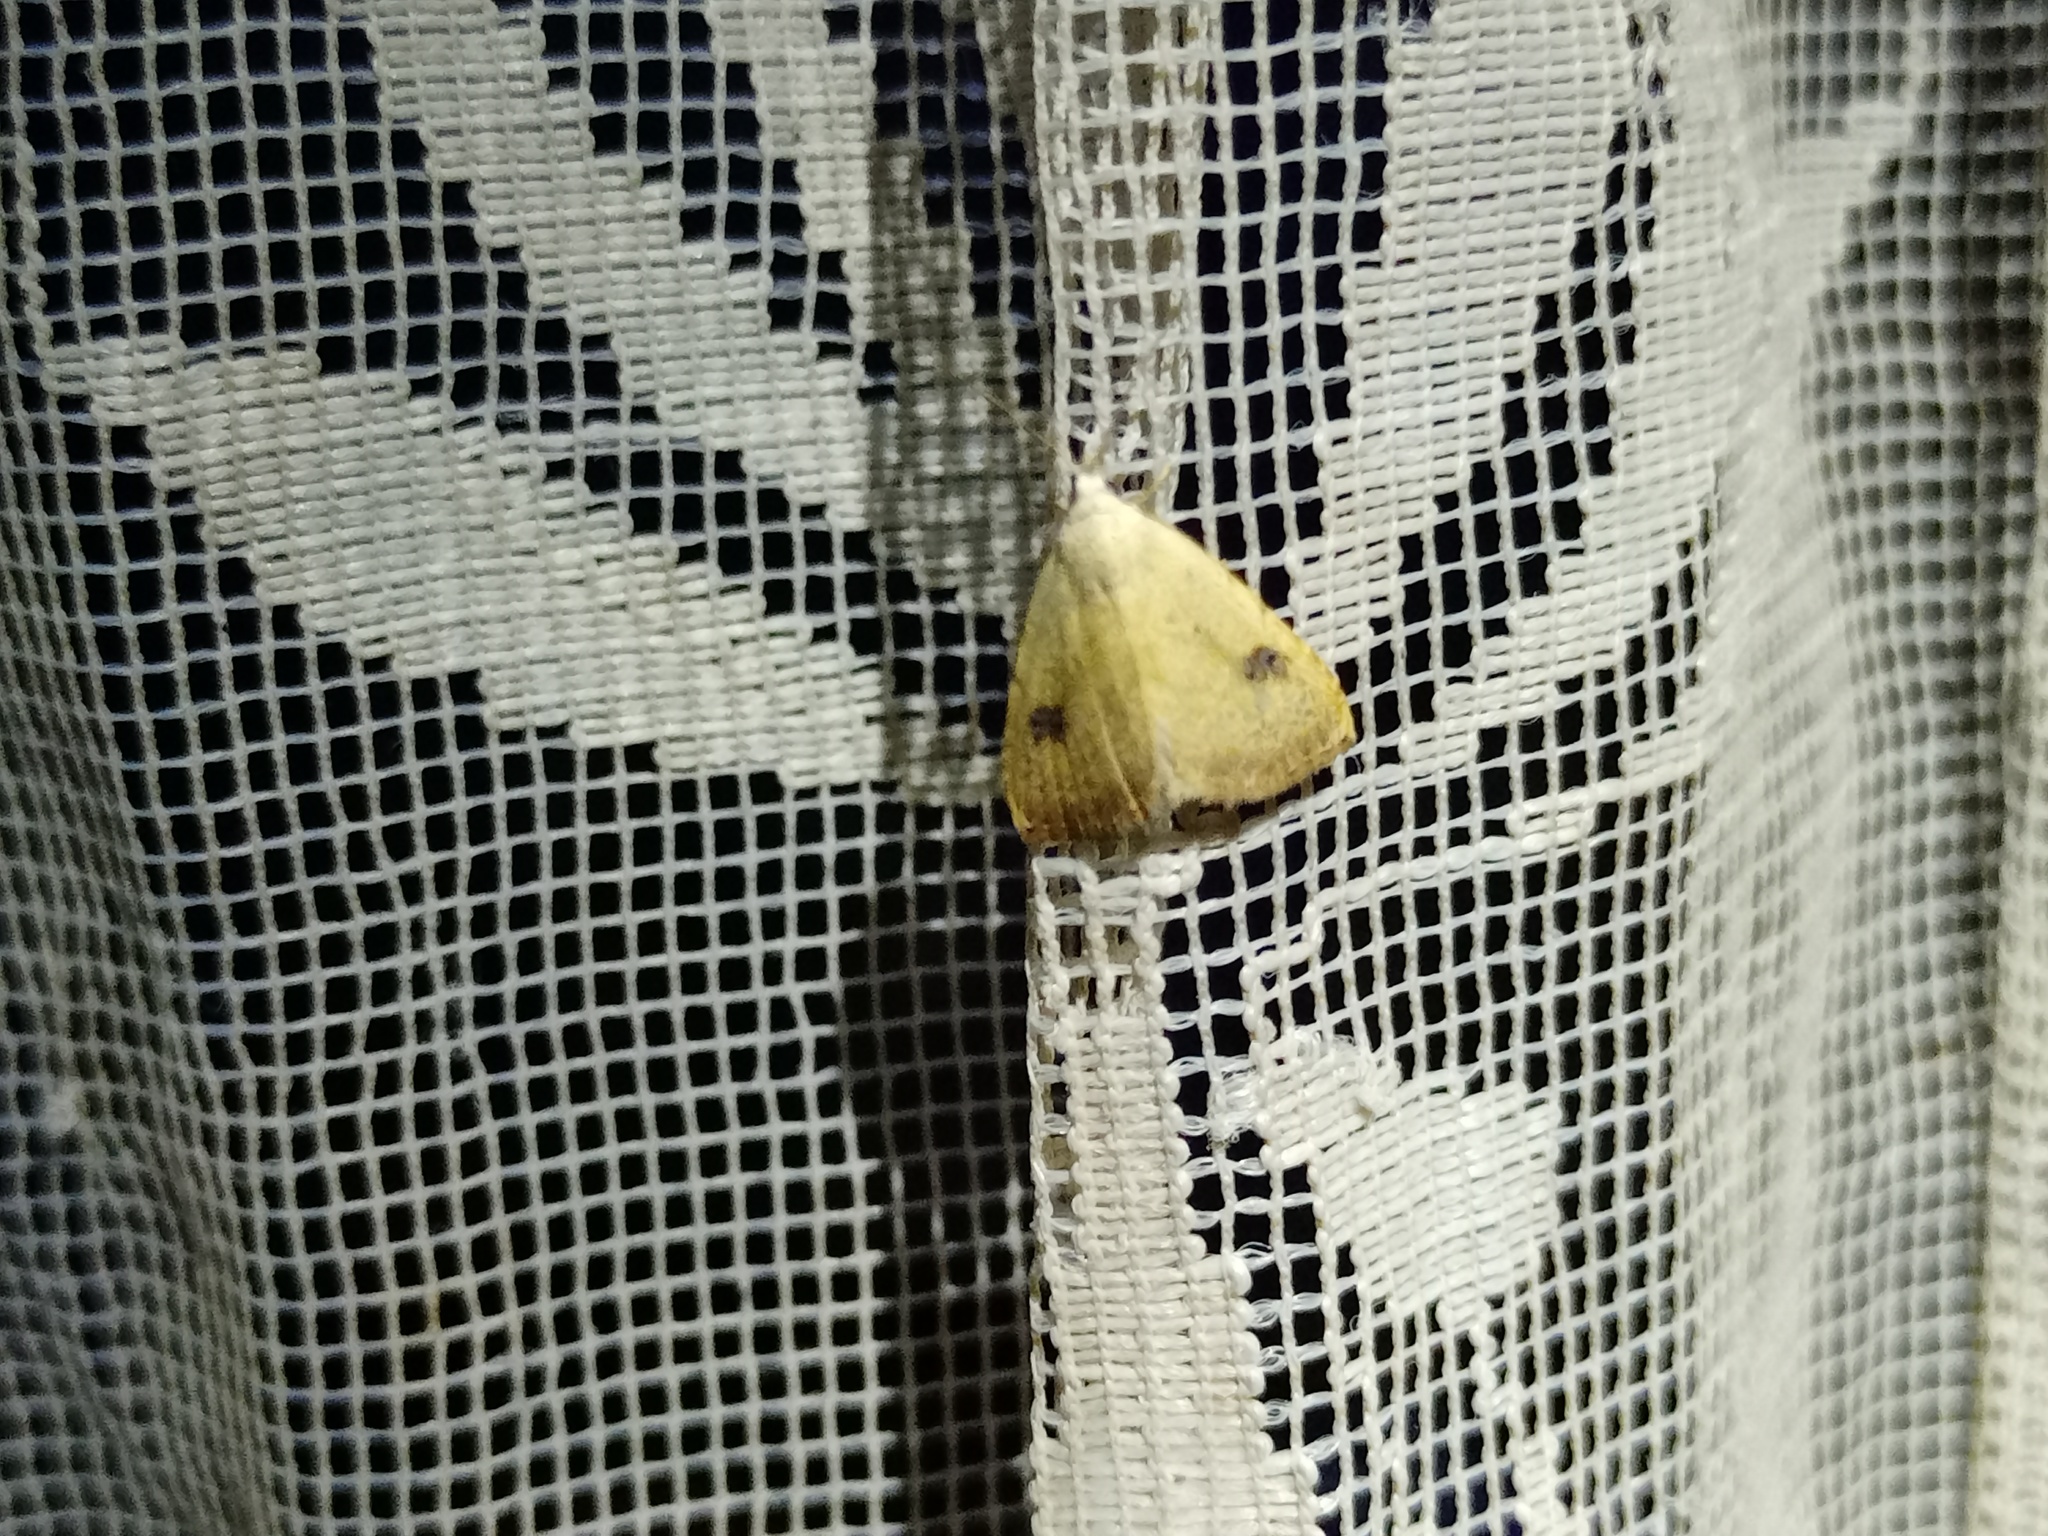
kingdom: Animalia
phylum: Arthropoda
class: Insecta
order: Lepidoptera
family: Erebidae
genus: Rivula
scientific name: Rivula sericealis
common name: Straw dot
